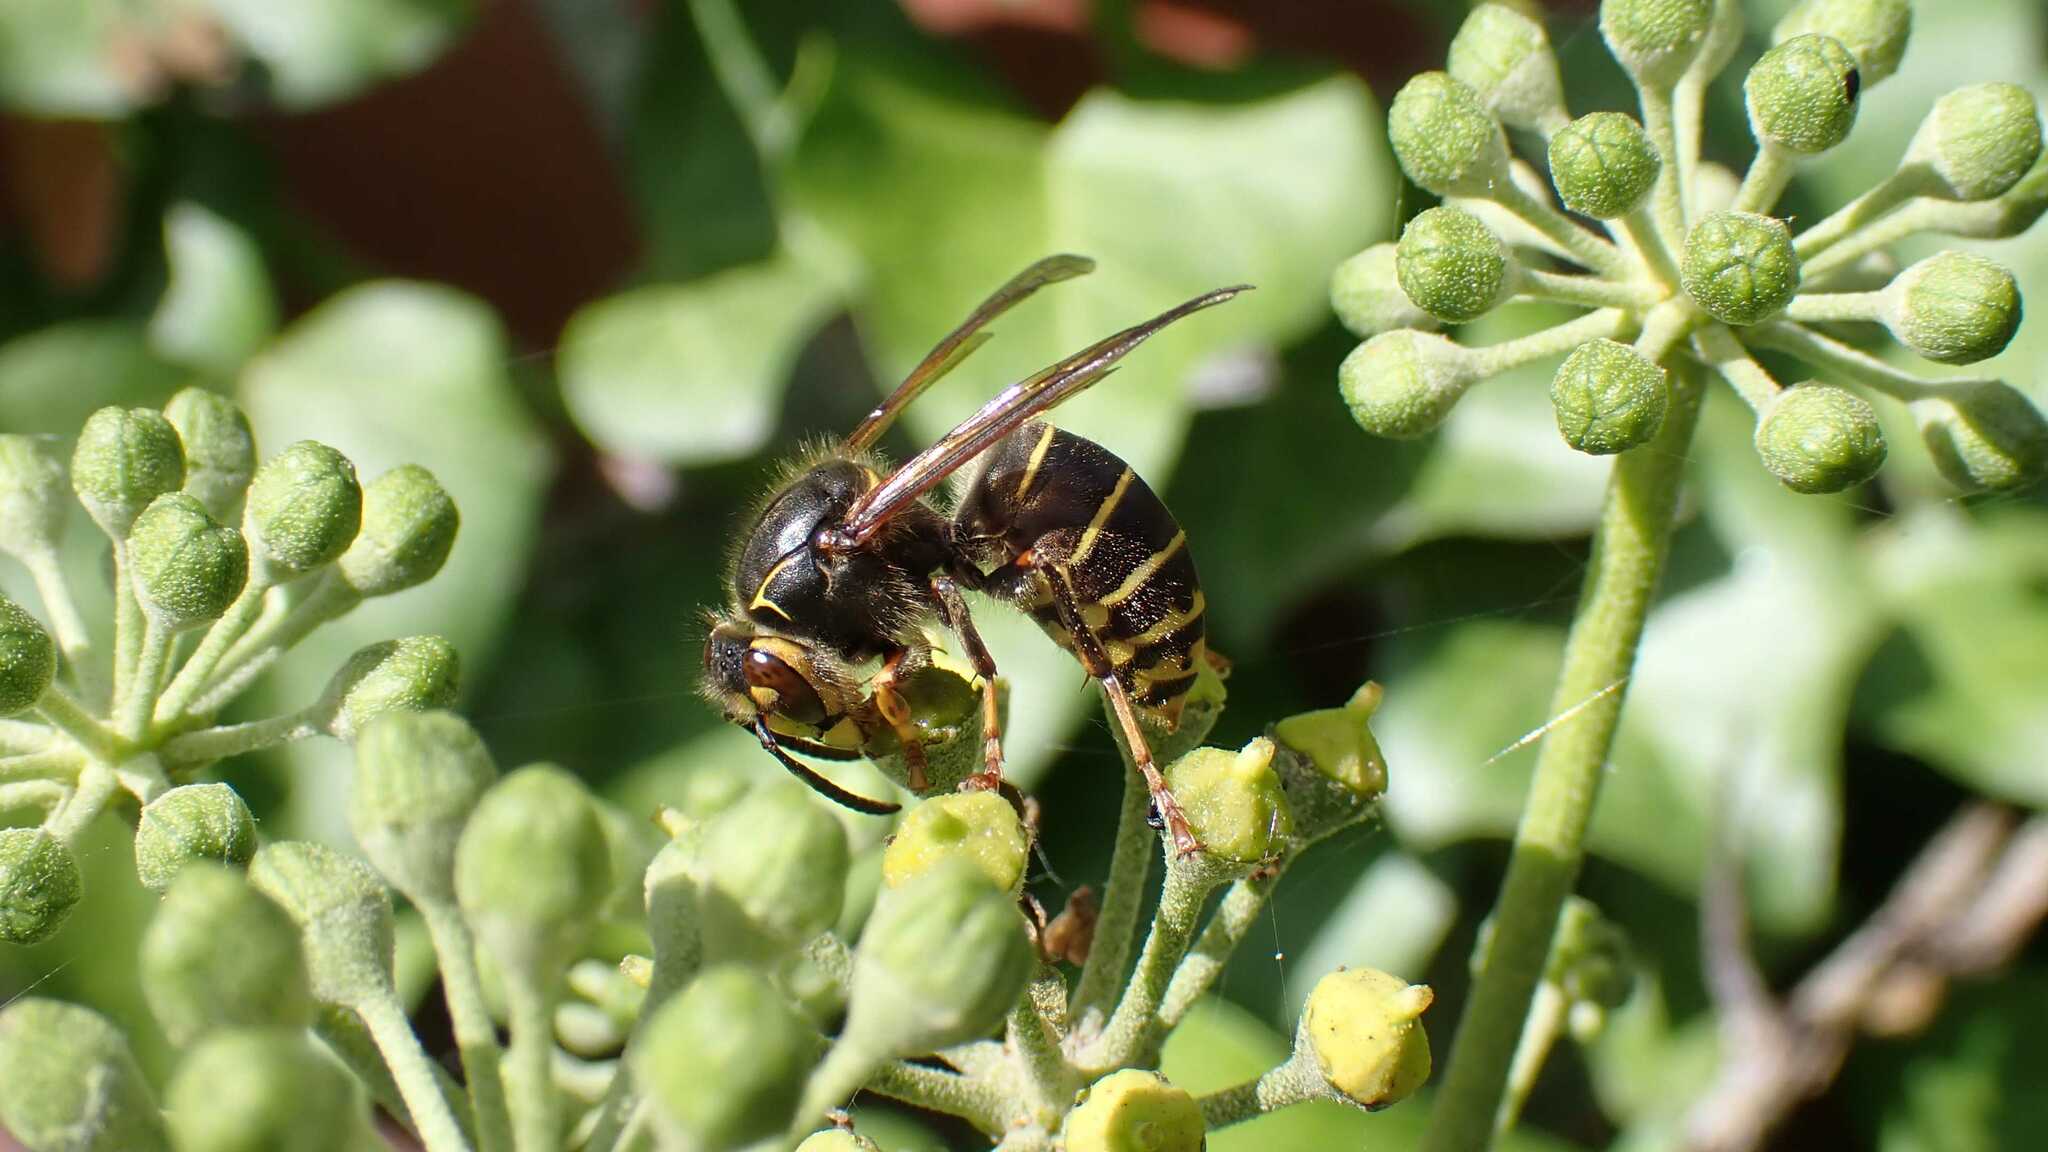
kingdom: Animalia
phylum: Arthropoda
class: Insecta
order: Hymenoptera
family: Vespidae
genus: Dolichovespula
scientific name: Dolichovespula media
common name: Median wasp
